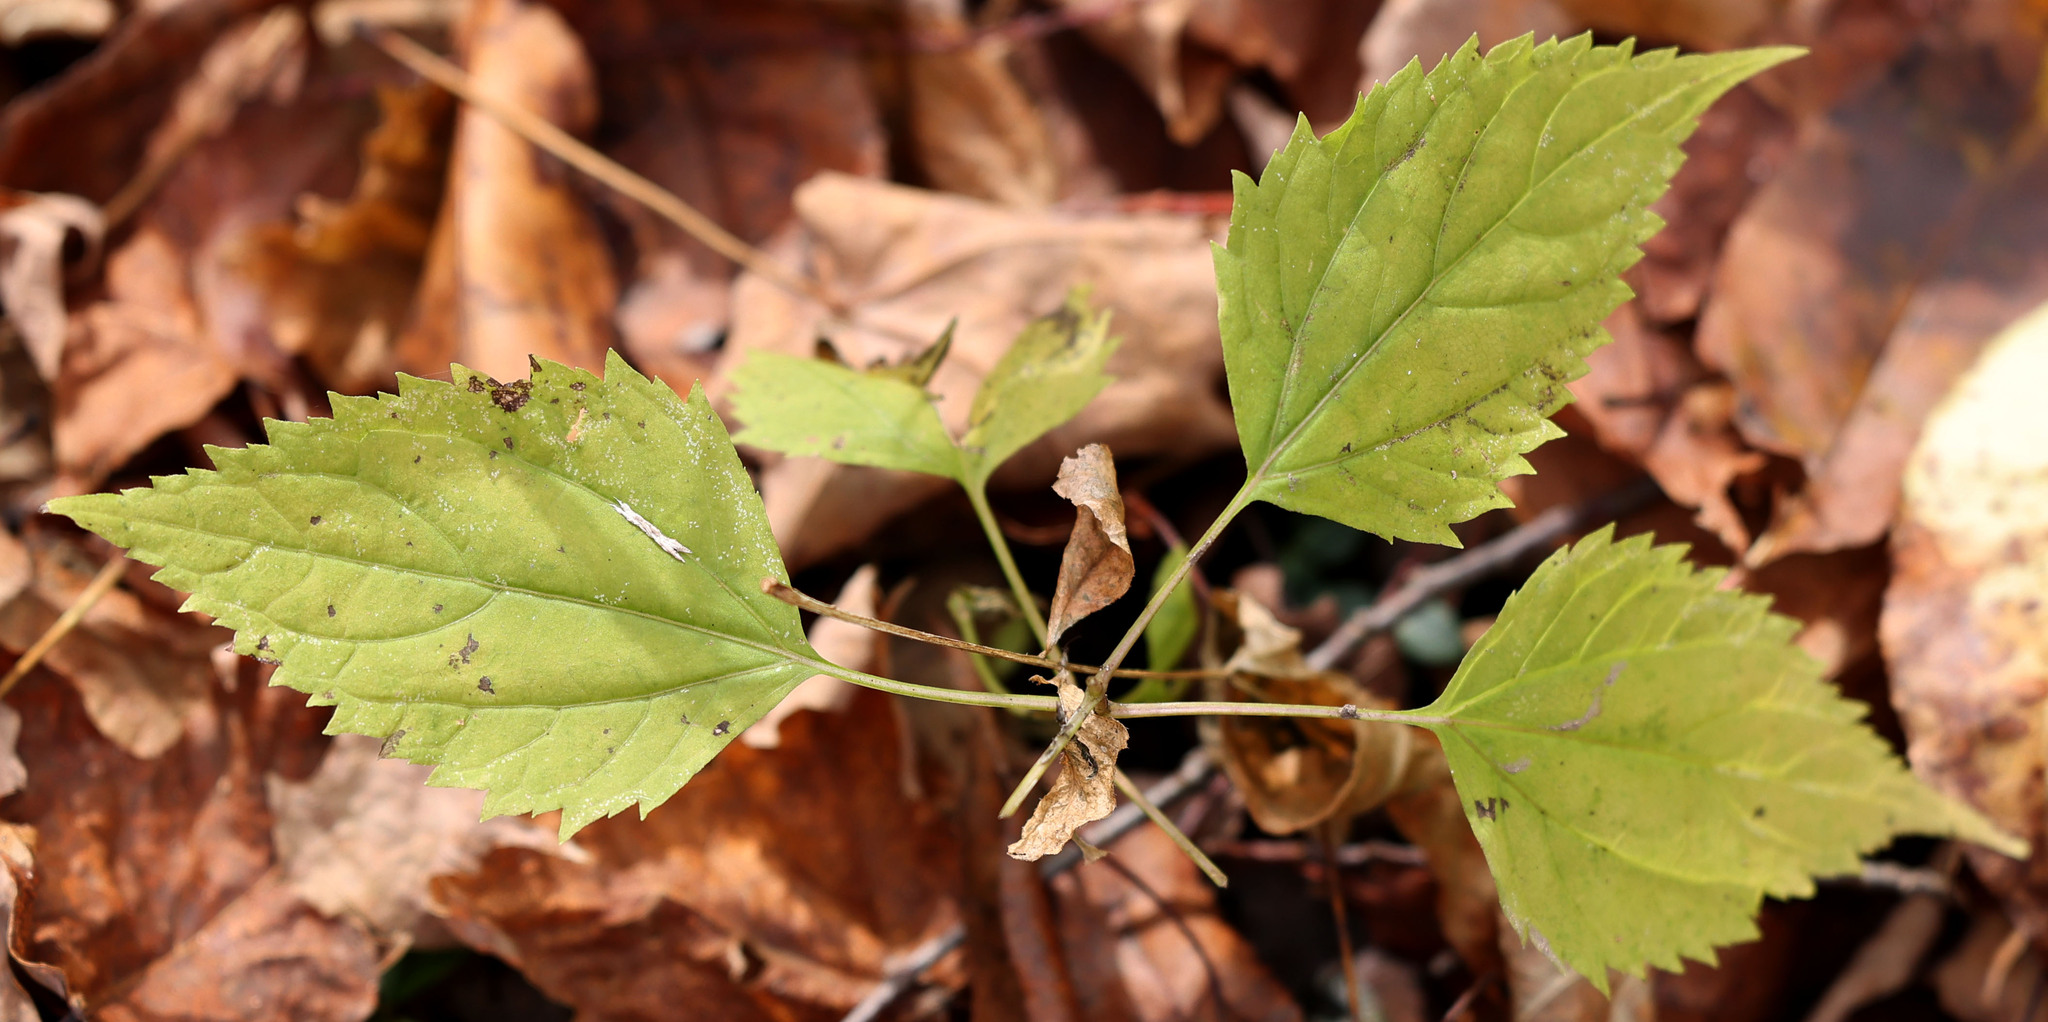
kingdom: Plantae
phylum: Tracheophyta
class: Magnoliopsida
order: Asterales
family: Asteraceae
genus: Ageratina
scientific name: Ageratina altissima
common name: White snakeroot
